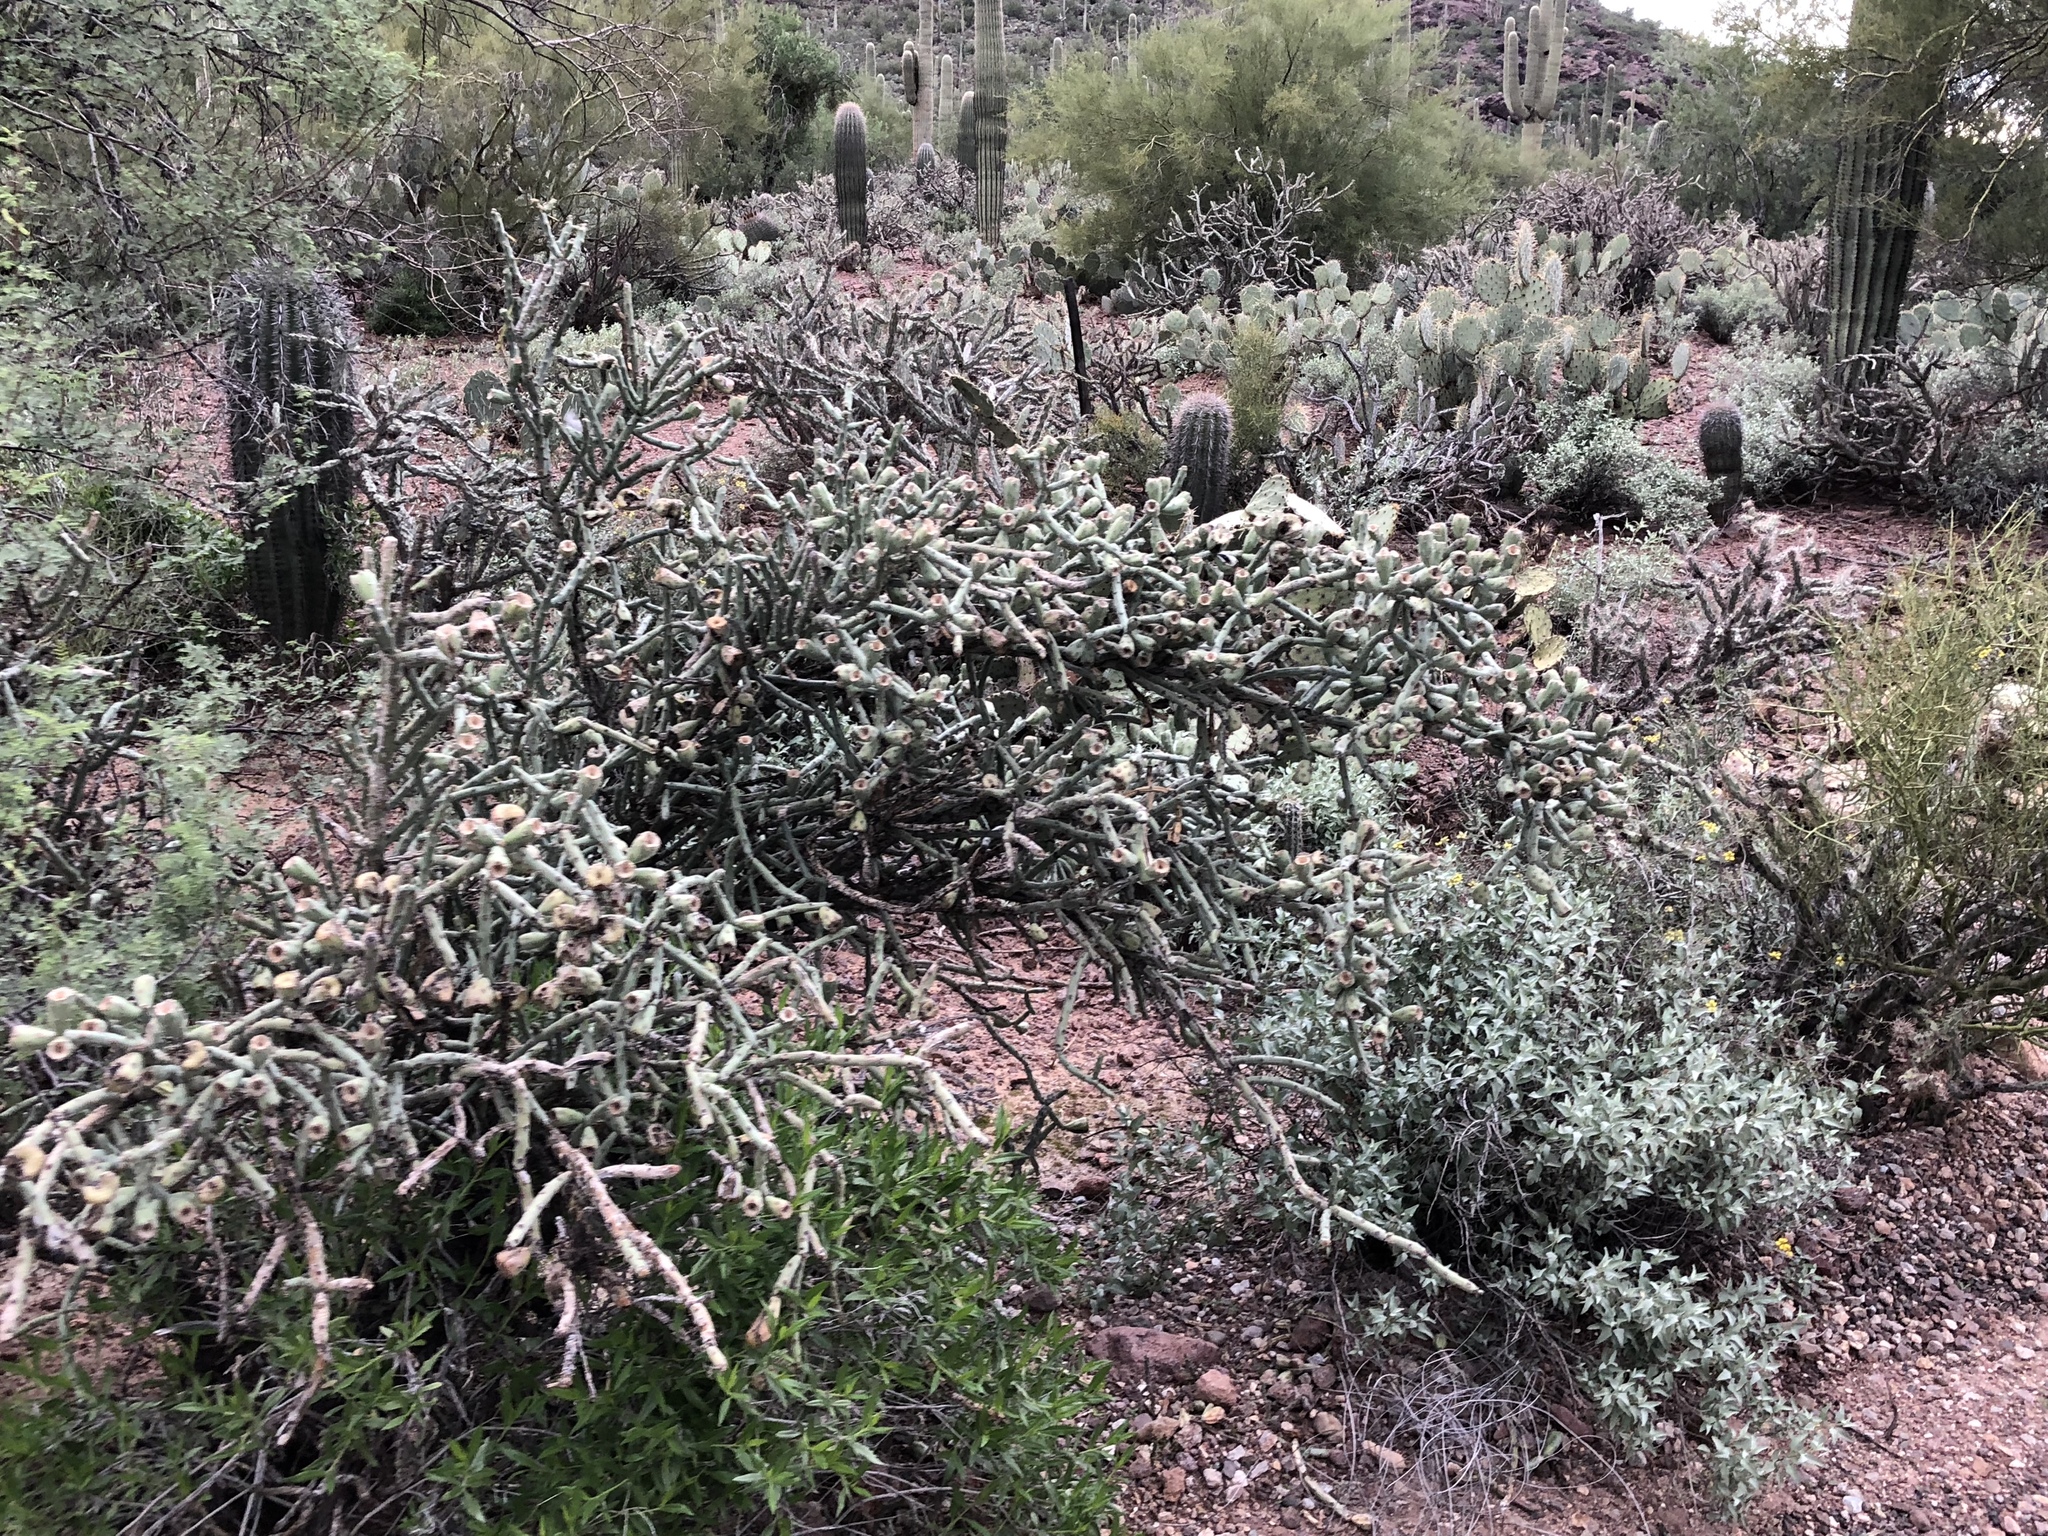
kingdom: Plantae
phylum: Tracheophyta
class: Magnoliopsida
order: Caryophyllales
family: Cactaceae
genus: Cylindropuntia
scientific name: Cylindropuntia arbuscula
